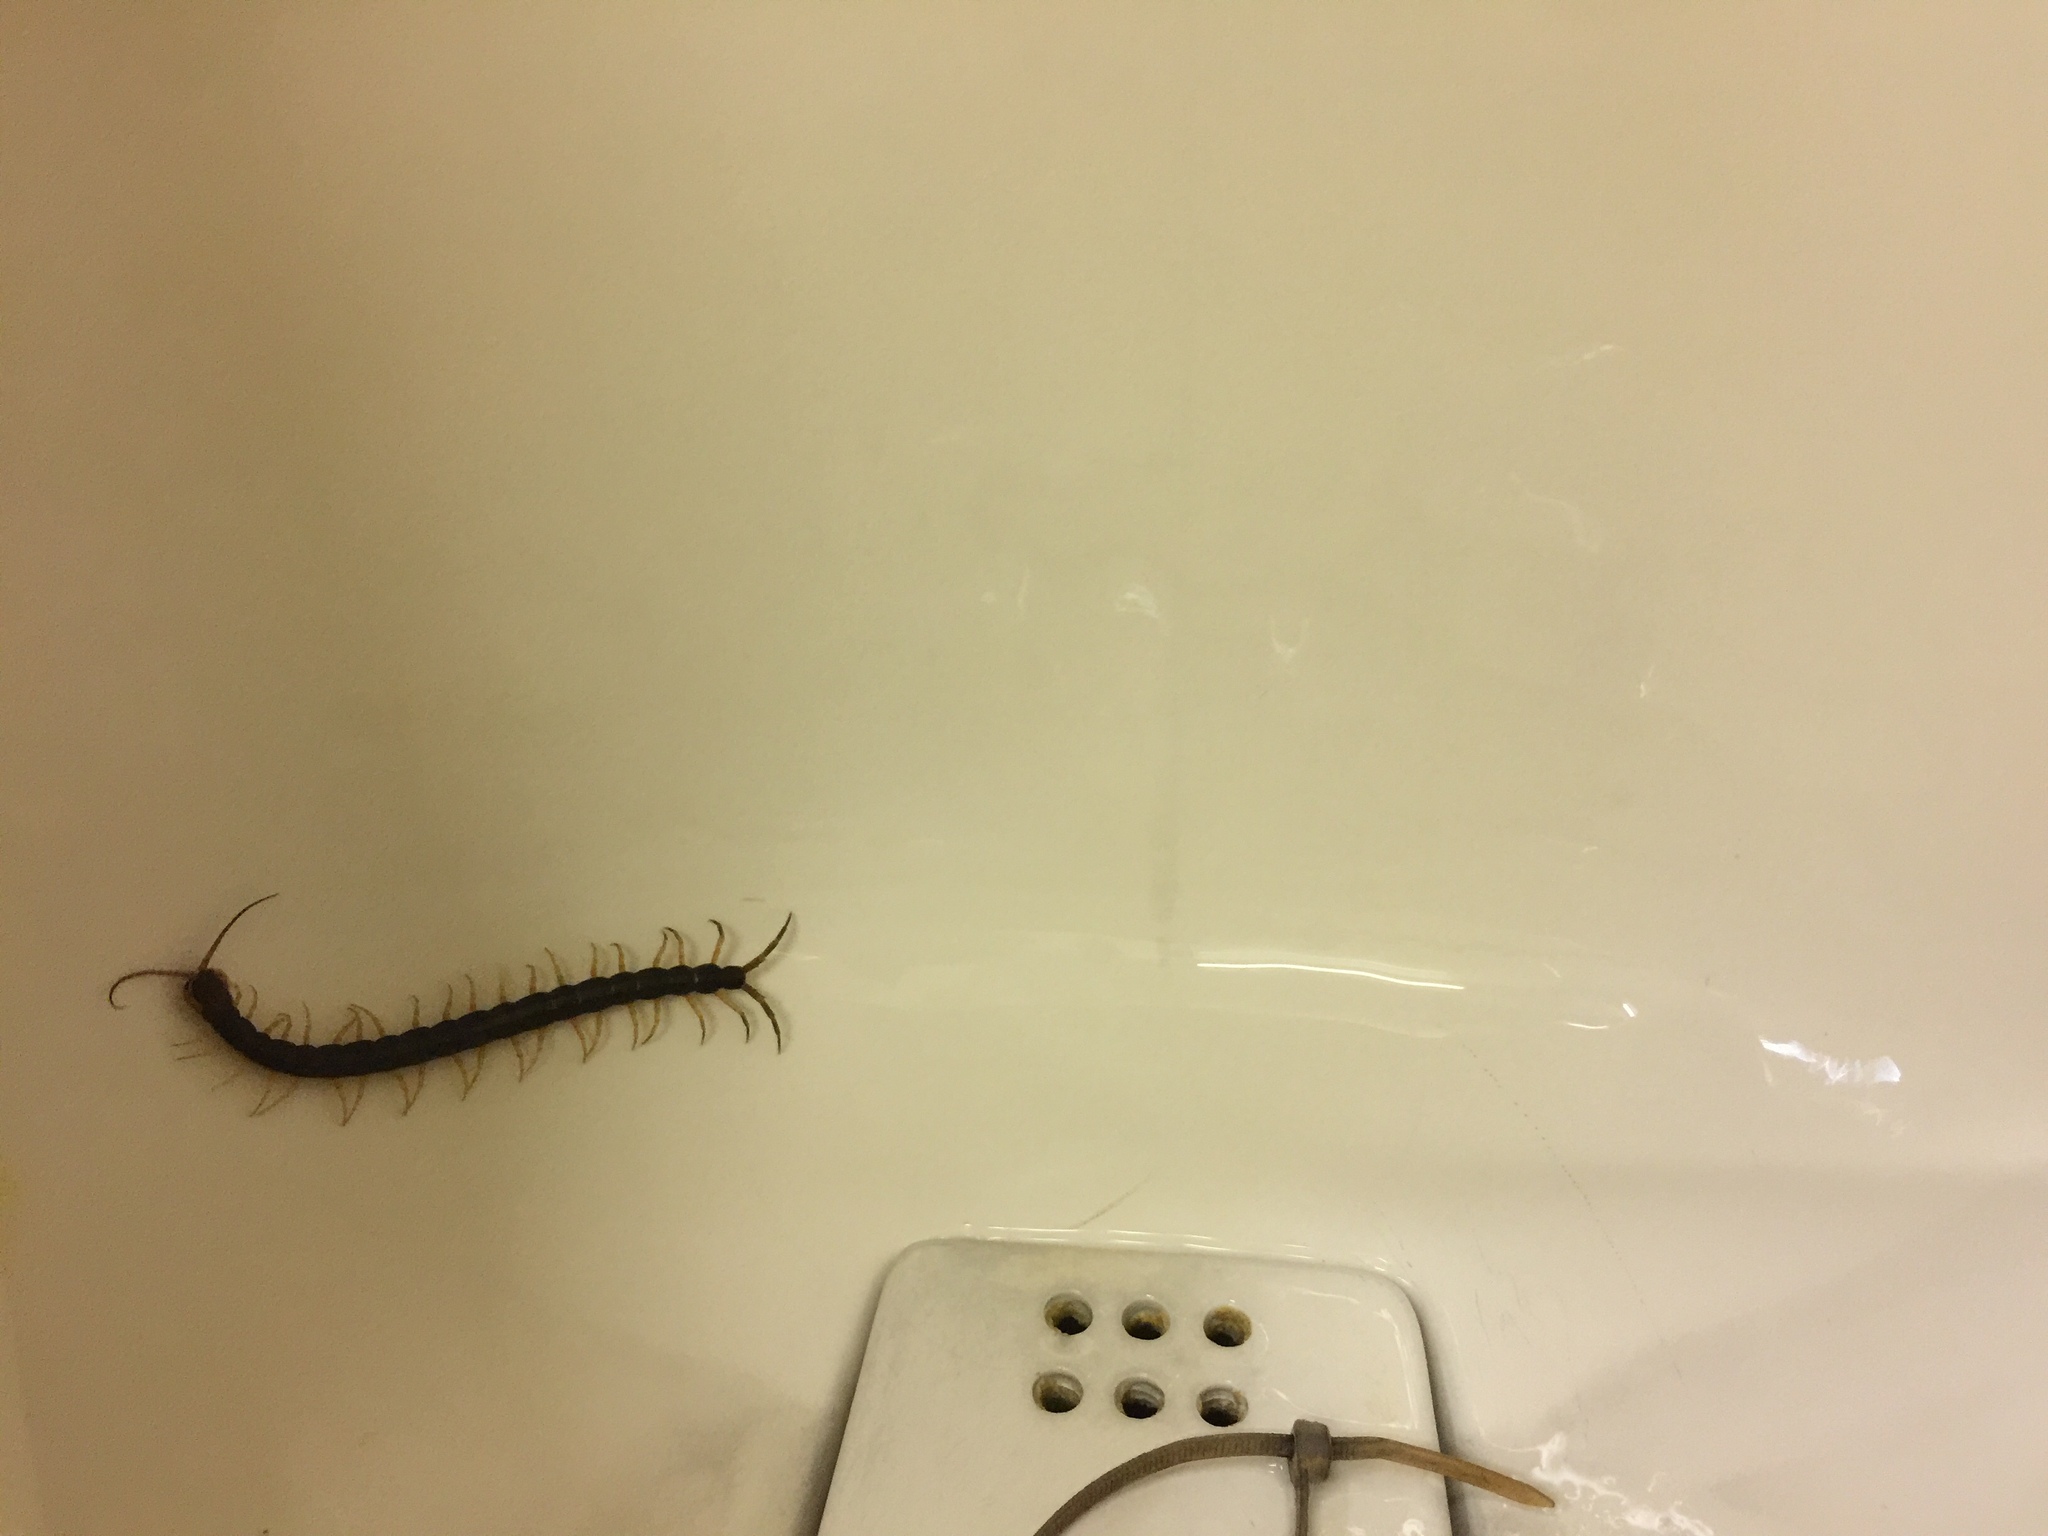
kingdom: Animalia
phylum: Arthropoda
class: Chilopoda
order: Scolopendromorpha
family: Scolopendridae
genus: Scolopendra
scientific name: Scolopendra mutilans
